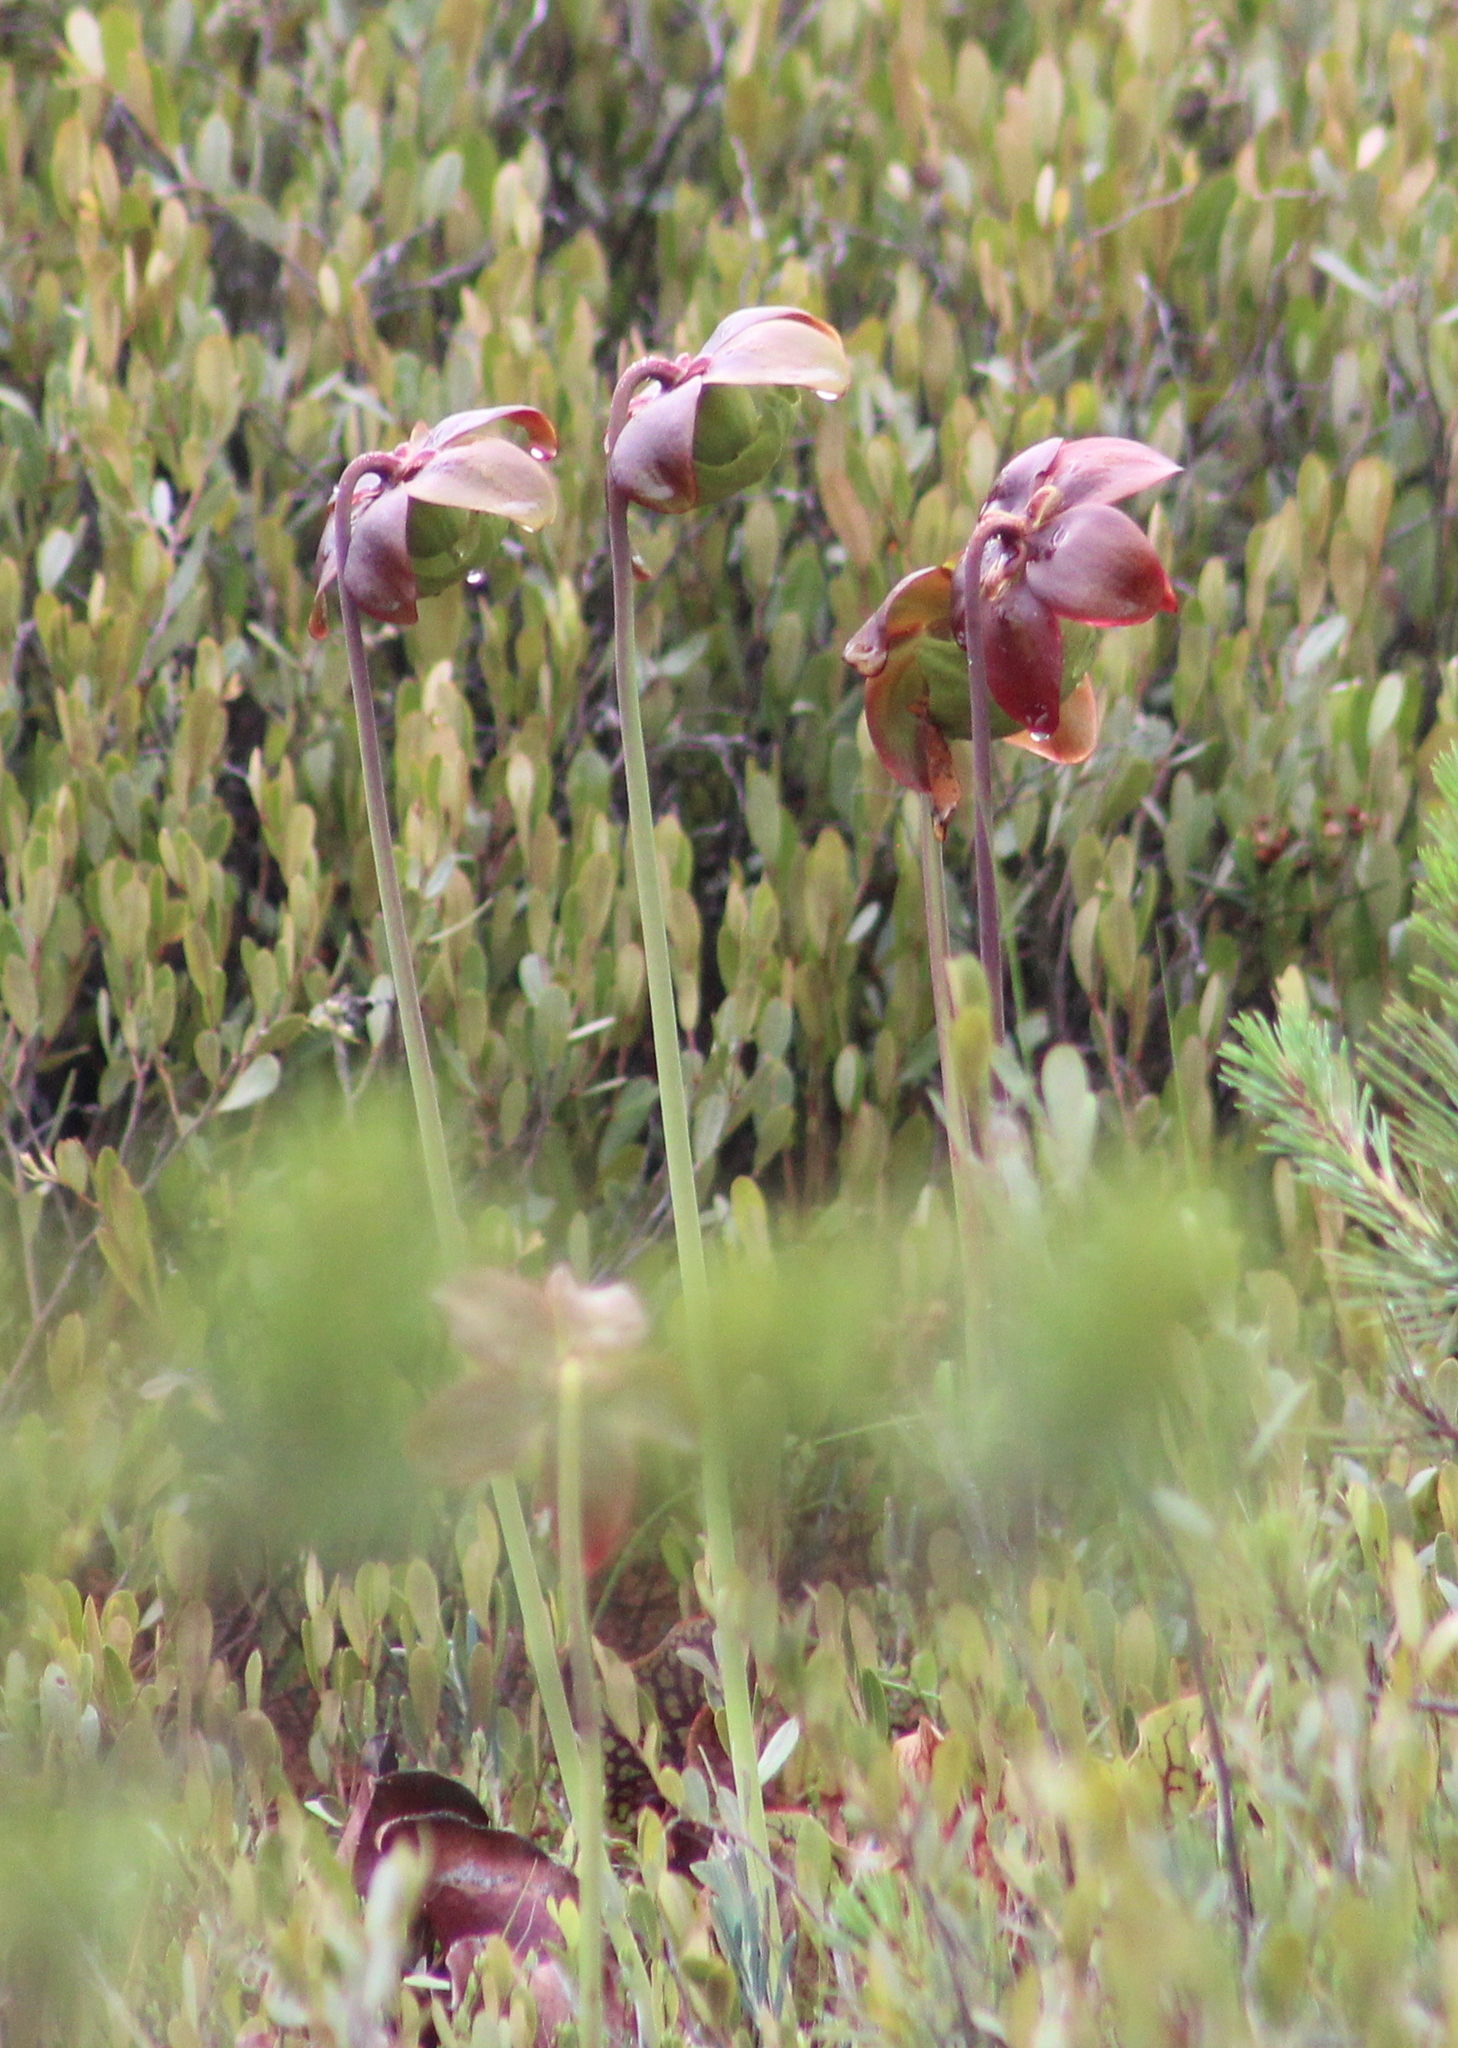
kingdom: Plantae
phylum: Tracheophyta
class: Magnoliopsida
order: Ericales
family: Sarraceniaceae
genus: Sarracenia
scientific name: Sarracenia purpurea
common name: Pitcherplant
